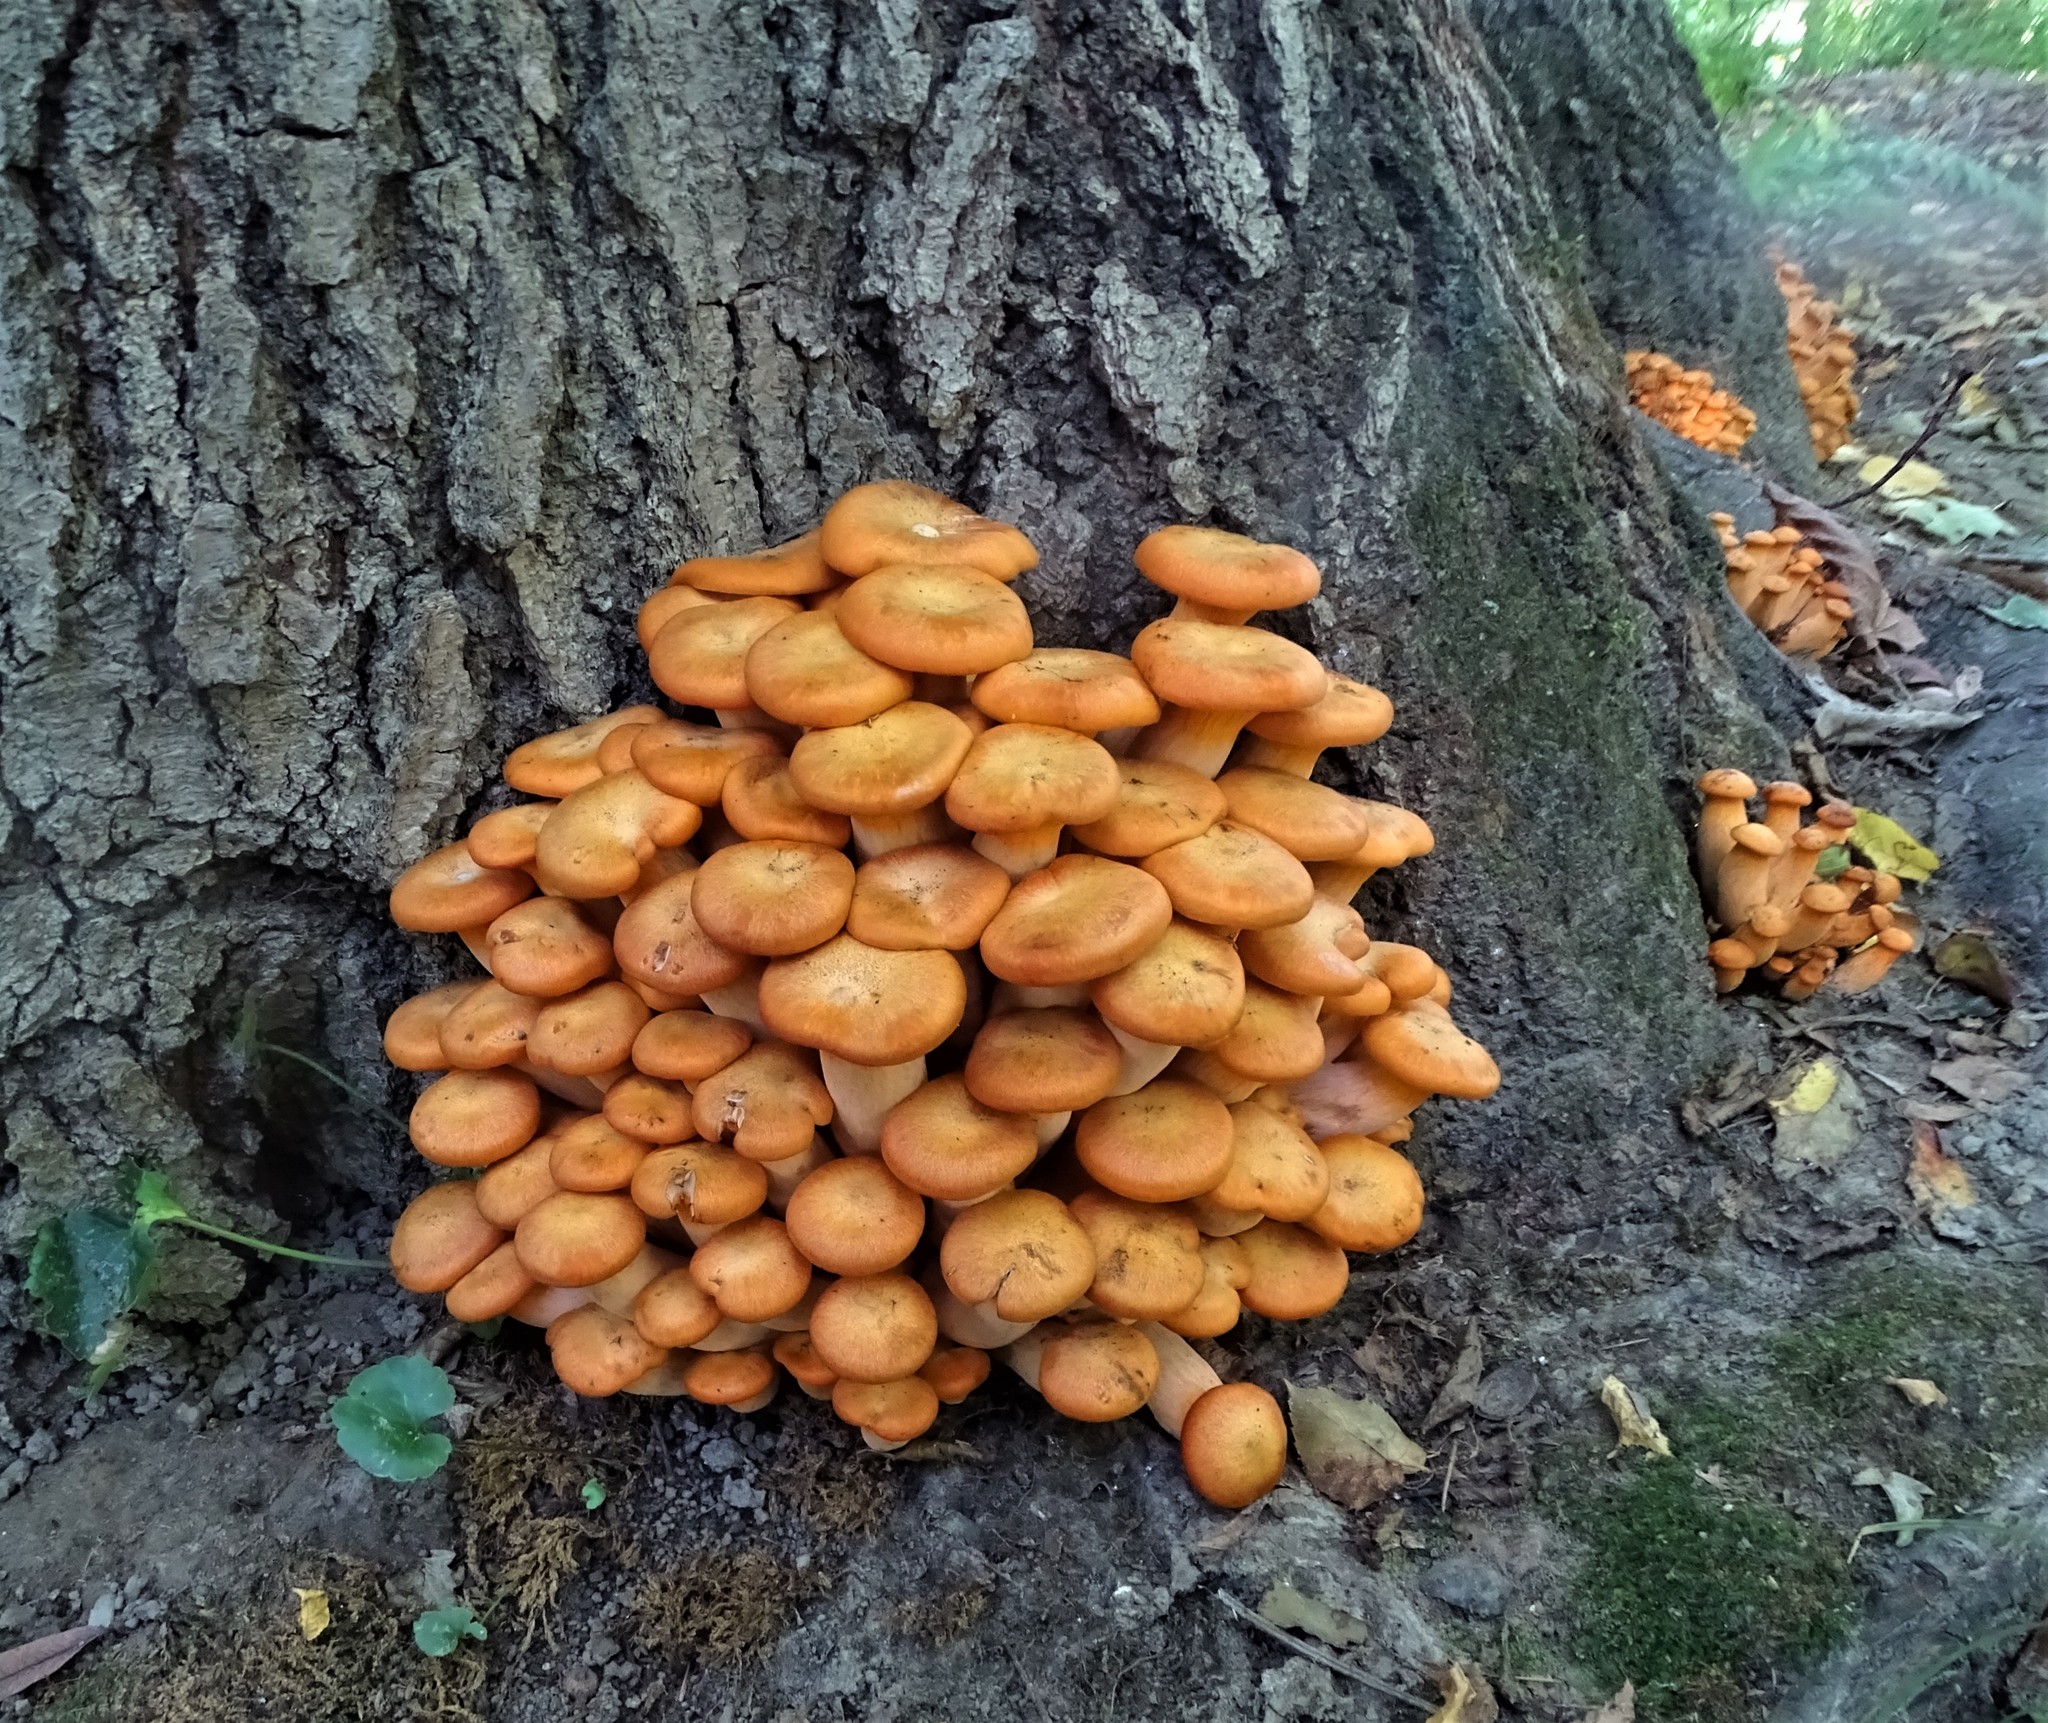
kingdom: Fungi
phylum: Basidiomycota
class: Agaricomycetes
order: Agaricales
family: Omphalotaceae
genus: Omphalotus
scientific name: Omphalotus illudens
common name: Jack o lantern
